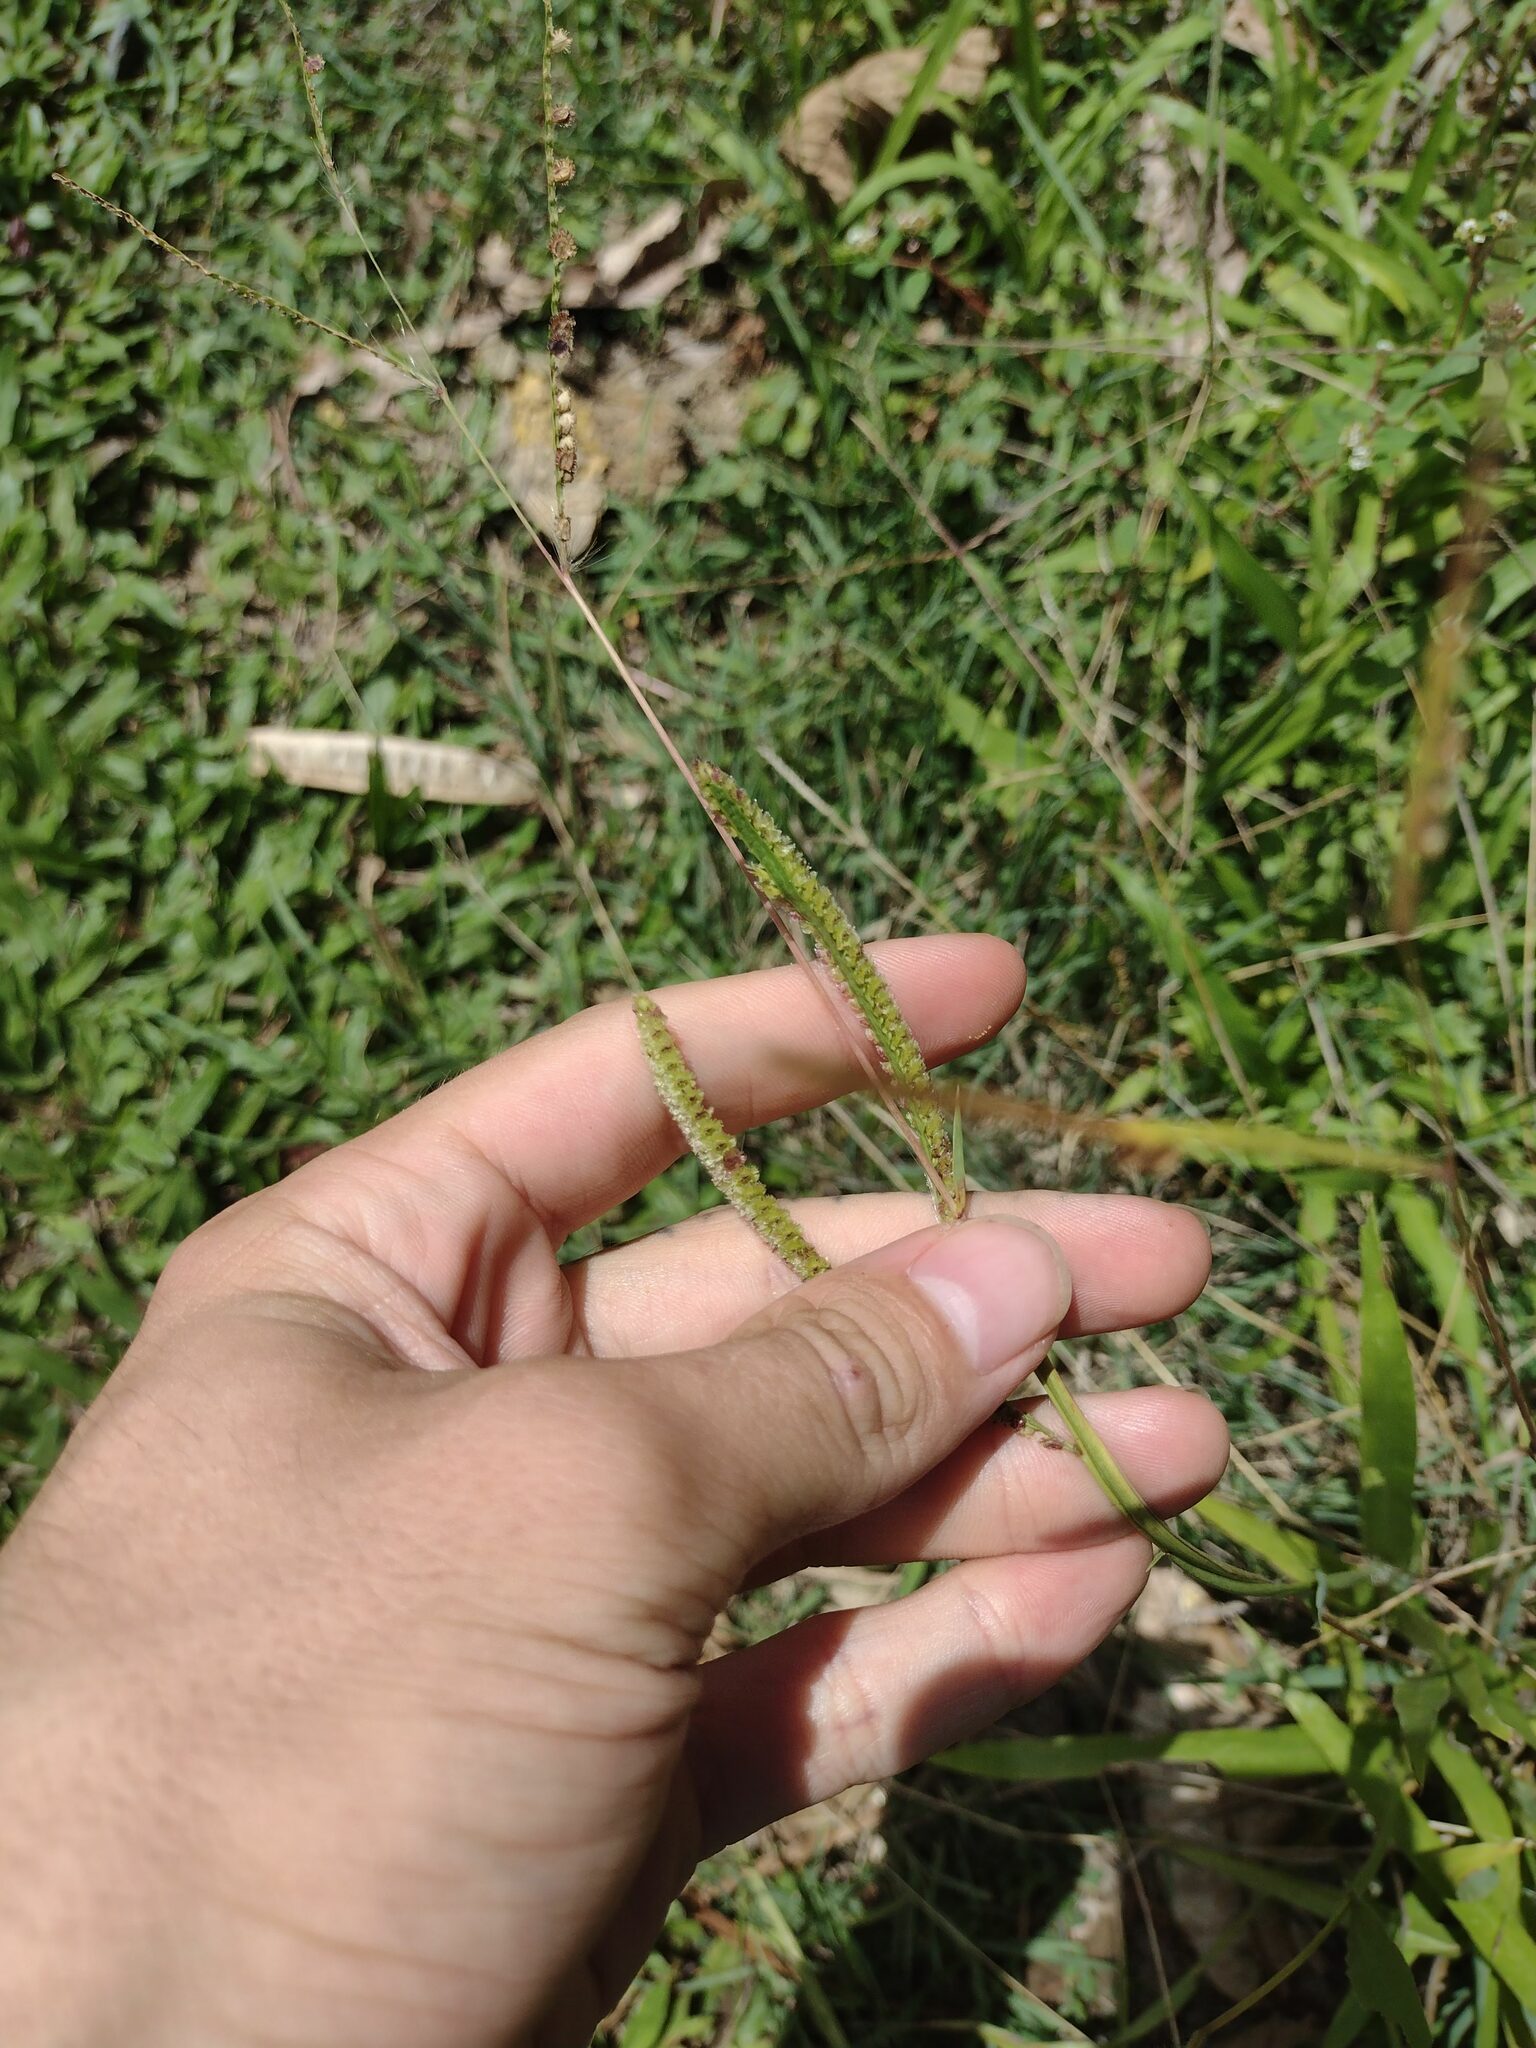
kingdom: Plantae
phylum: Tracheophyta
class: Liliopsida
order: Poales
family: Poaceae
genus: Paspalum
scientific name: Paspalum fimbriatum
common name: Panama crowngrass
